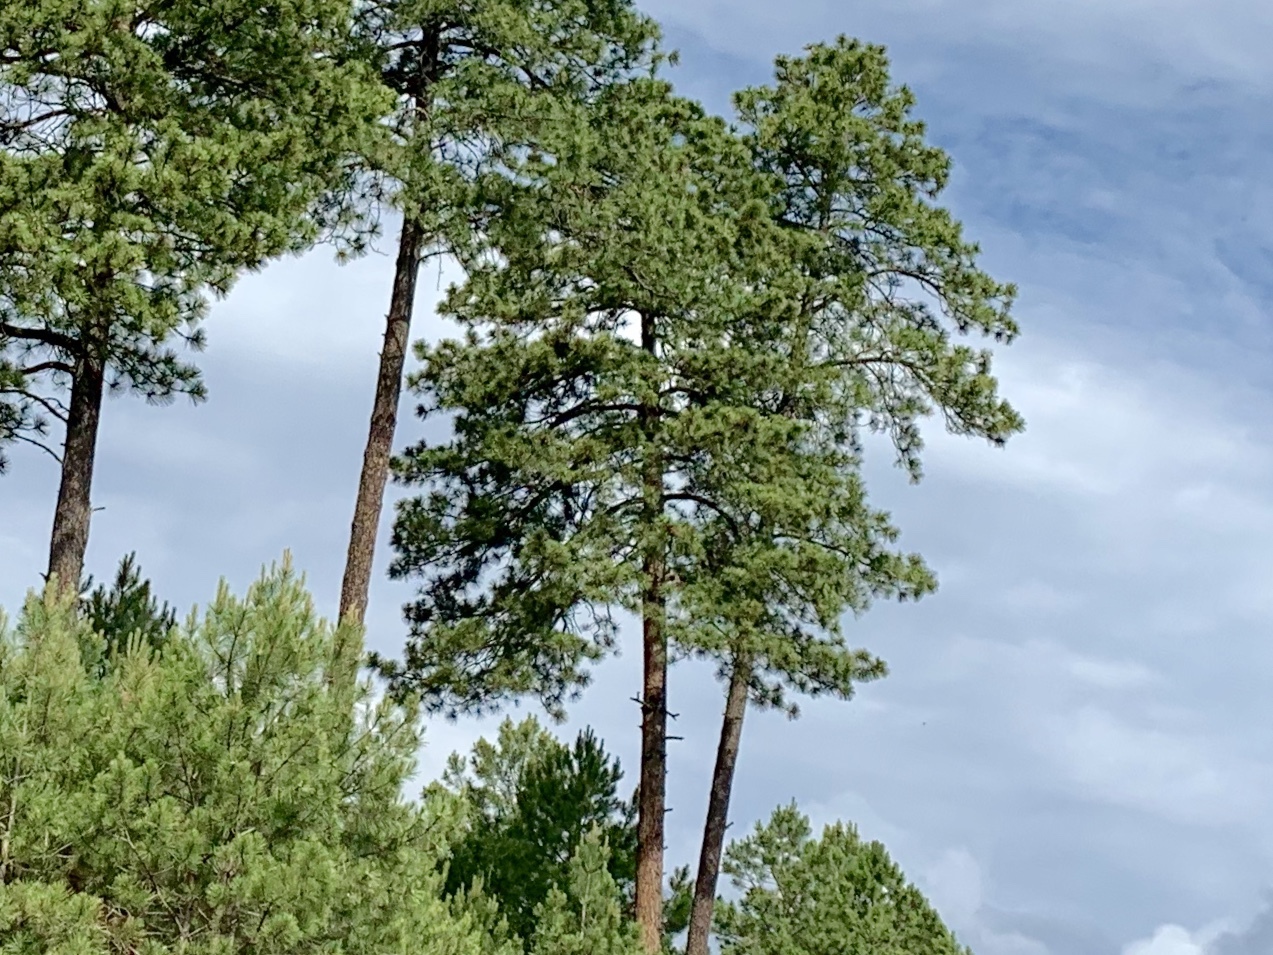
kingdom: Plantae
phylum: Tracheophyta
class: Pinopsida
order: Pinales
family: Pinaceae
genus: Pinus
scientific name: Pinus ponderosa
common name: Western yellow-pine
